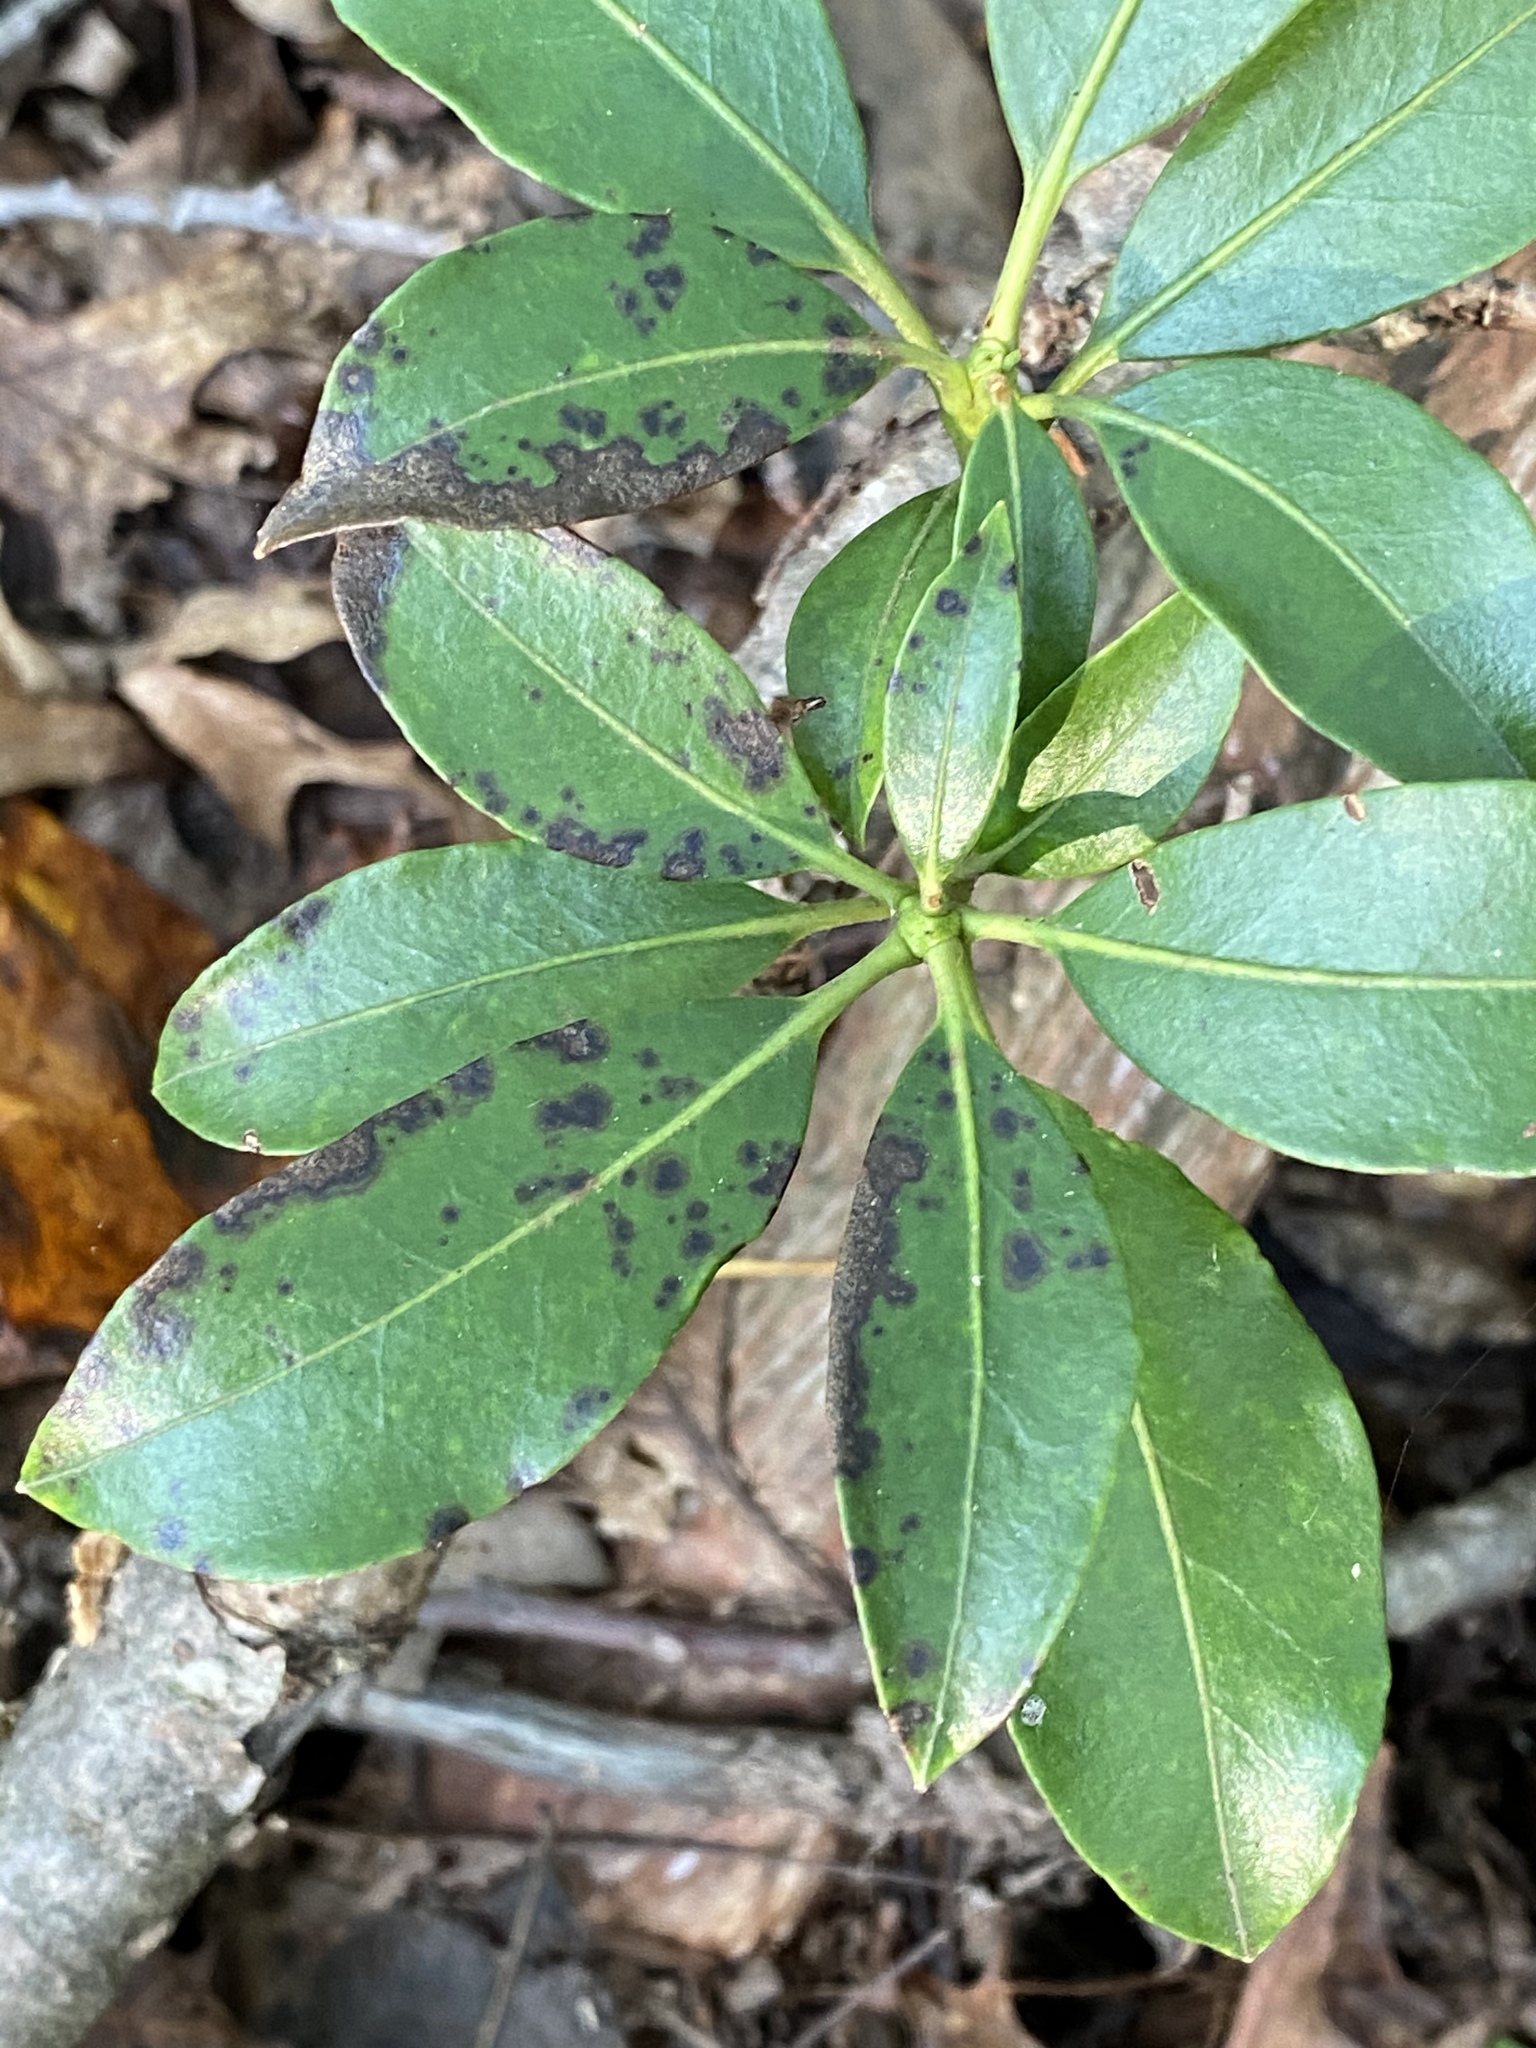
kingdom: Fungi
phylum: Ascomycota
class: Sordariomycetes
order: Diaporthales
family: Diaporthaceae
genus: Diaporthe
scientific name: Diaporthe kalmiae
